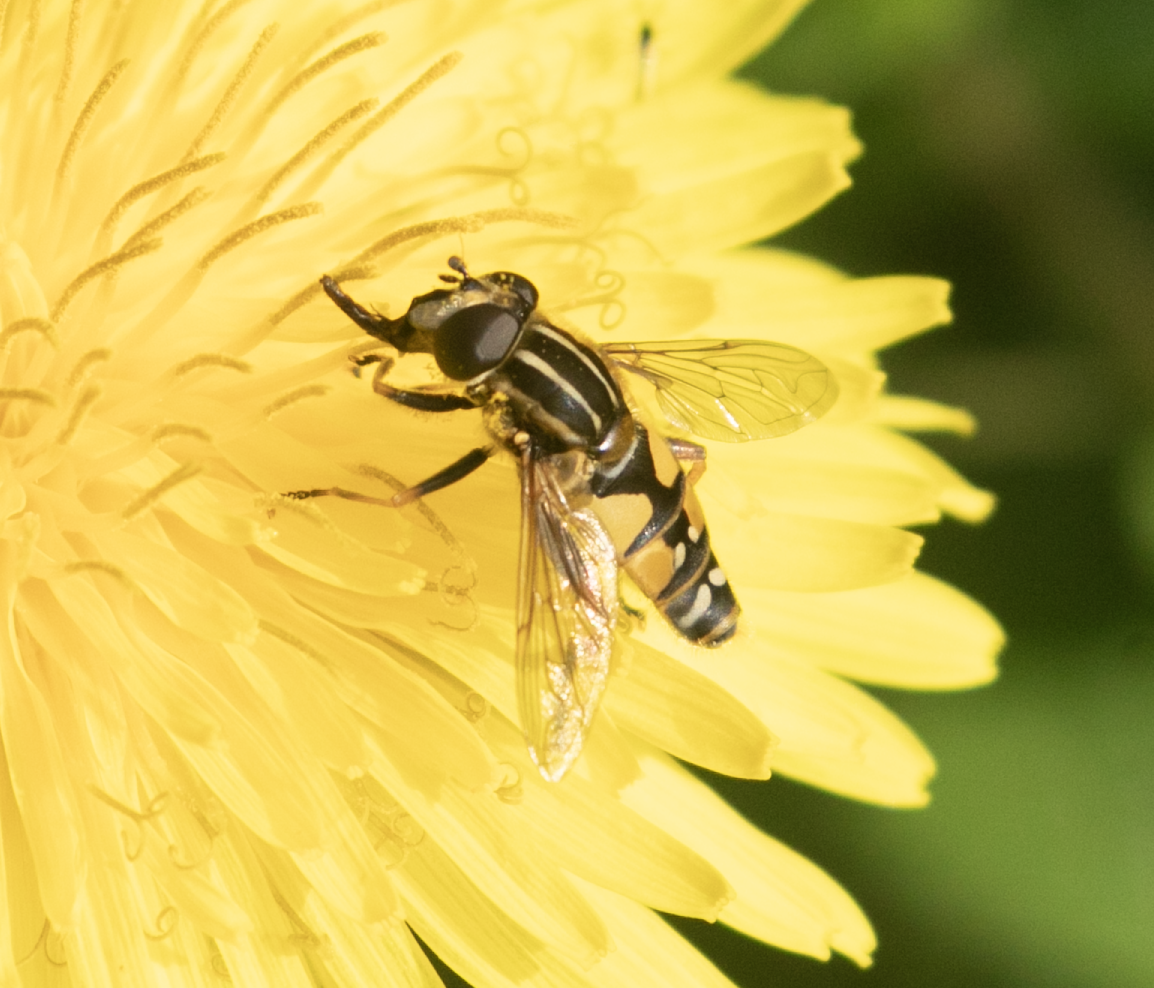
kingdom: Animalia
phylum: Arthropoda
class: Insecta
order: Diptera
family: Syrphidae
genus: Helophilus
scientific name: Helophilus pendulus
